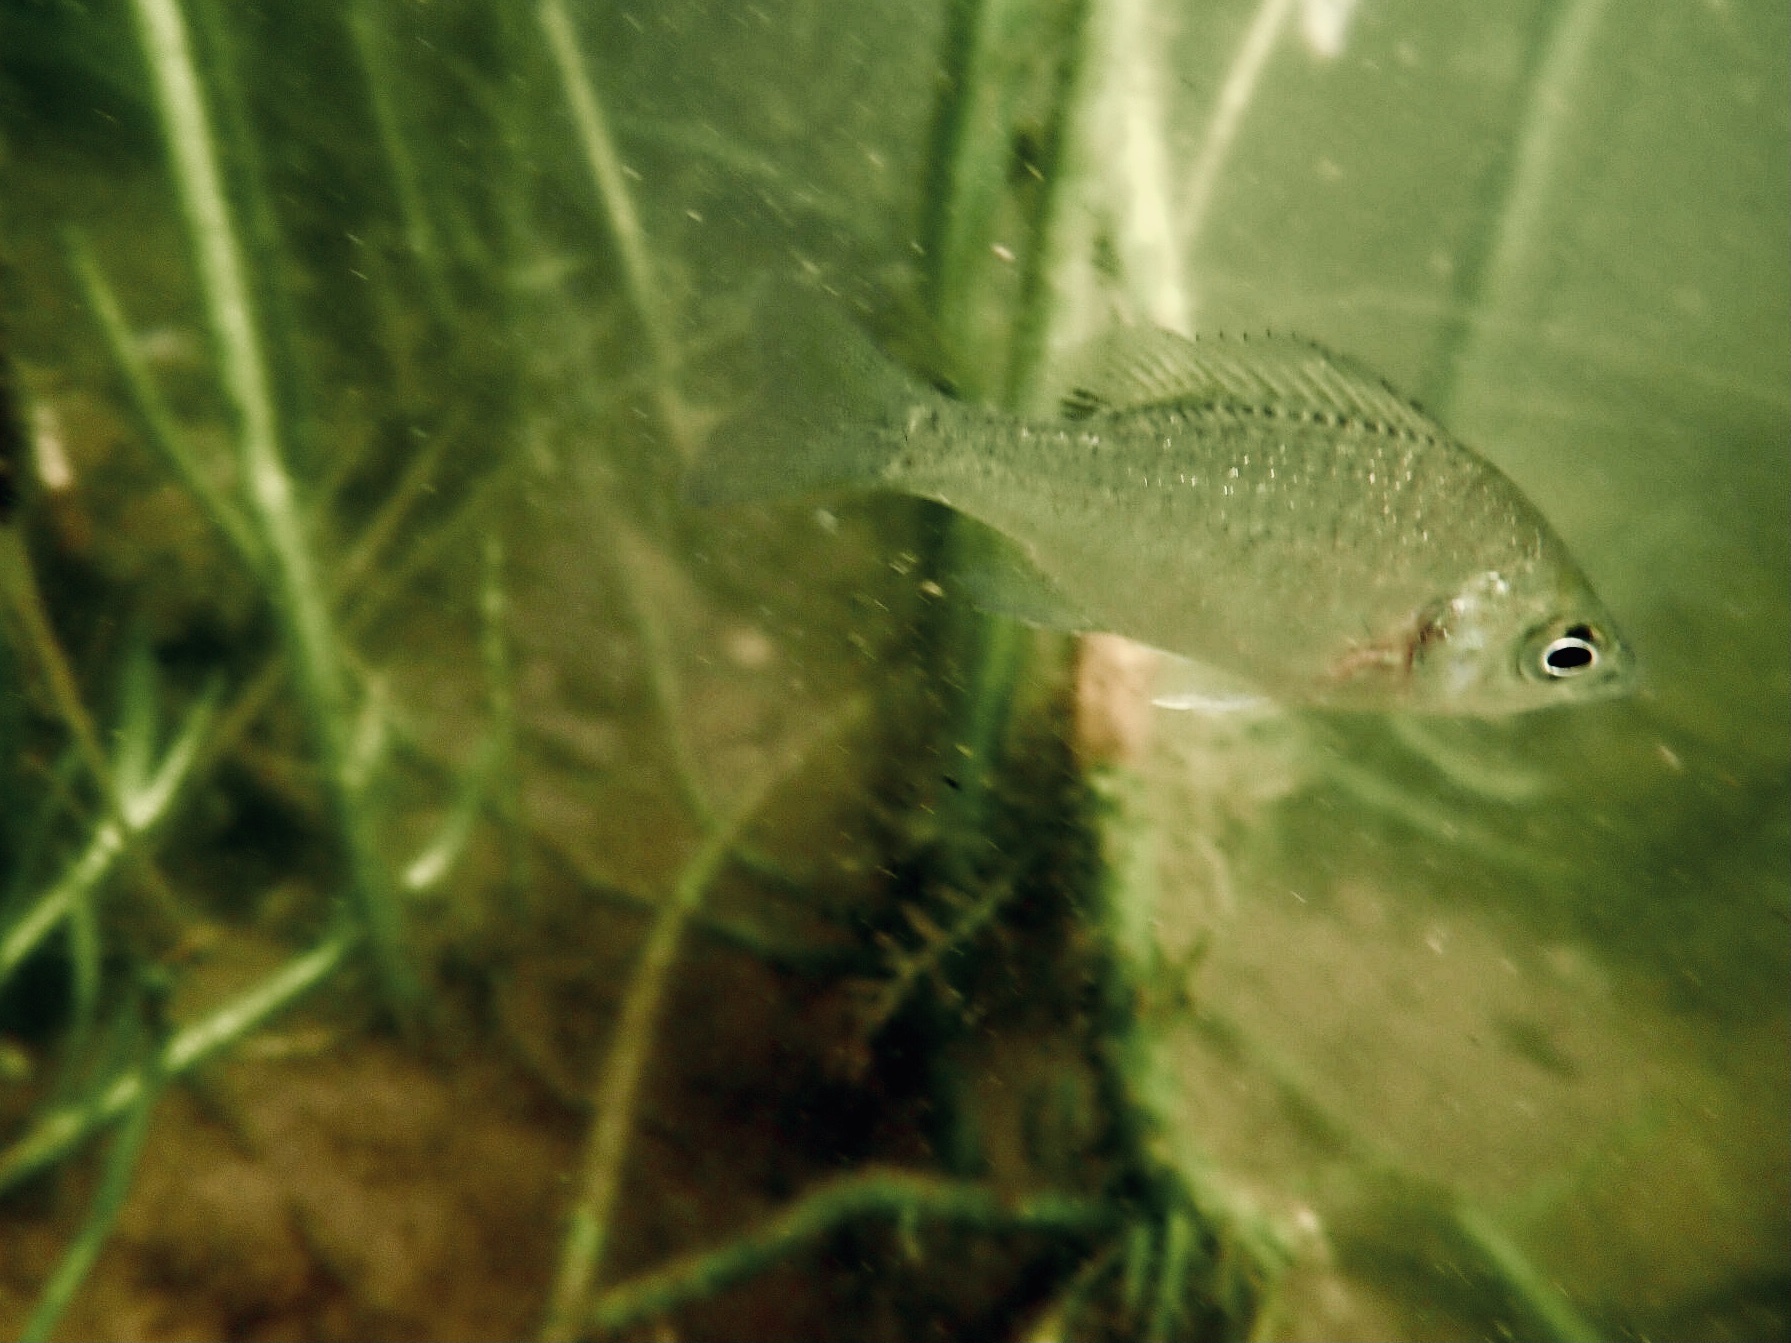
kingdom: Animalia
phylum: Chordata
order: Perciformes
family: Centrarchidae
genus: Lepomis
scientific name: Lepomis macrochirus
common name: Bluegill
